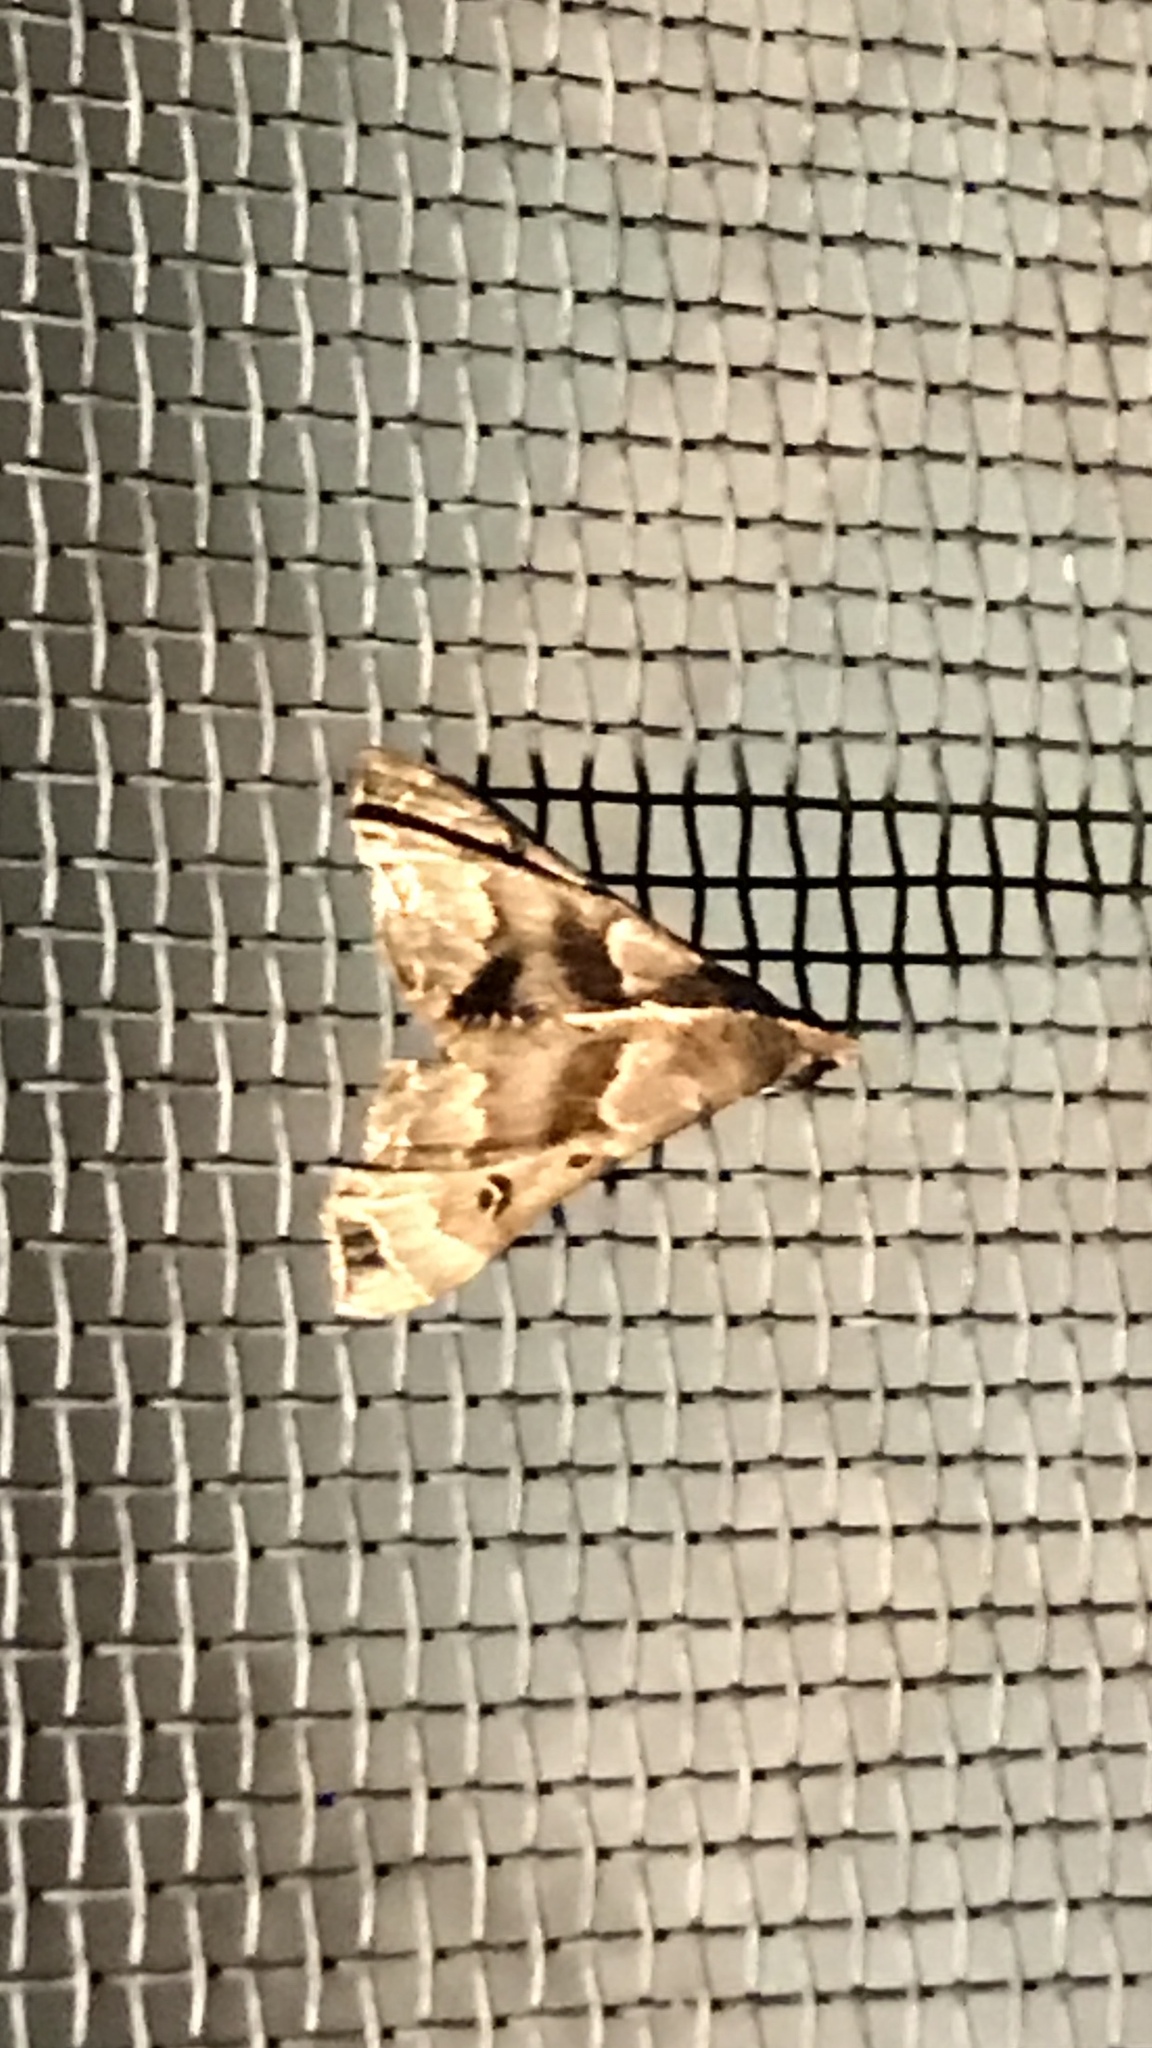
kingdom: Animalia
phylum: Arthropoda
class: Insecta
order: Lepidoptera
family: Erebidae
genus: Palthis
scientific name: Palthis asopialis
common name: Faint-spotted palthis moth
